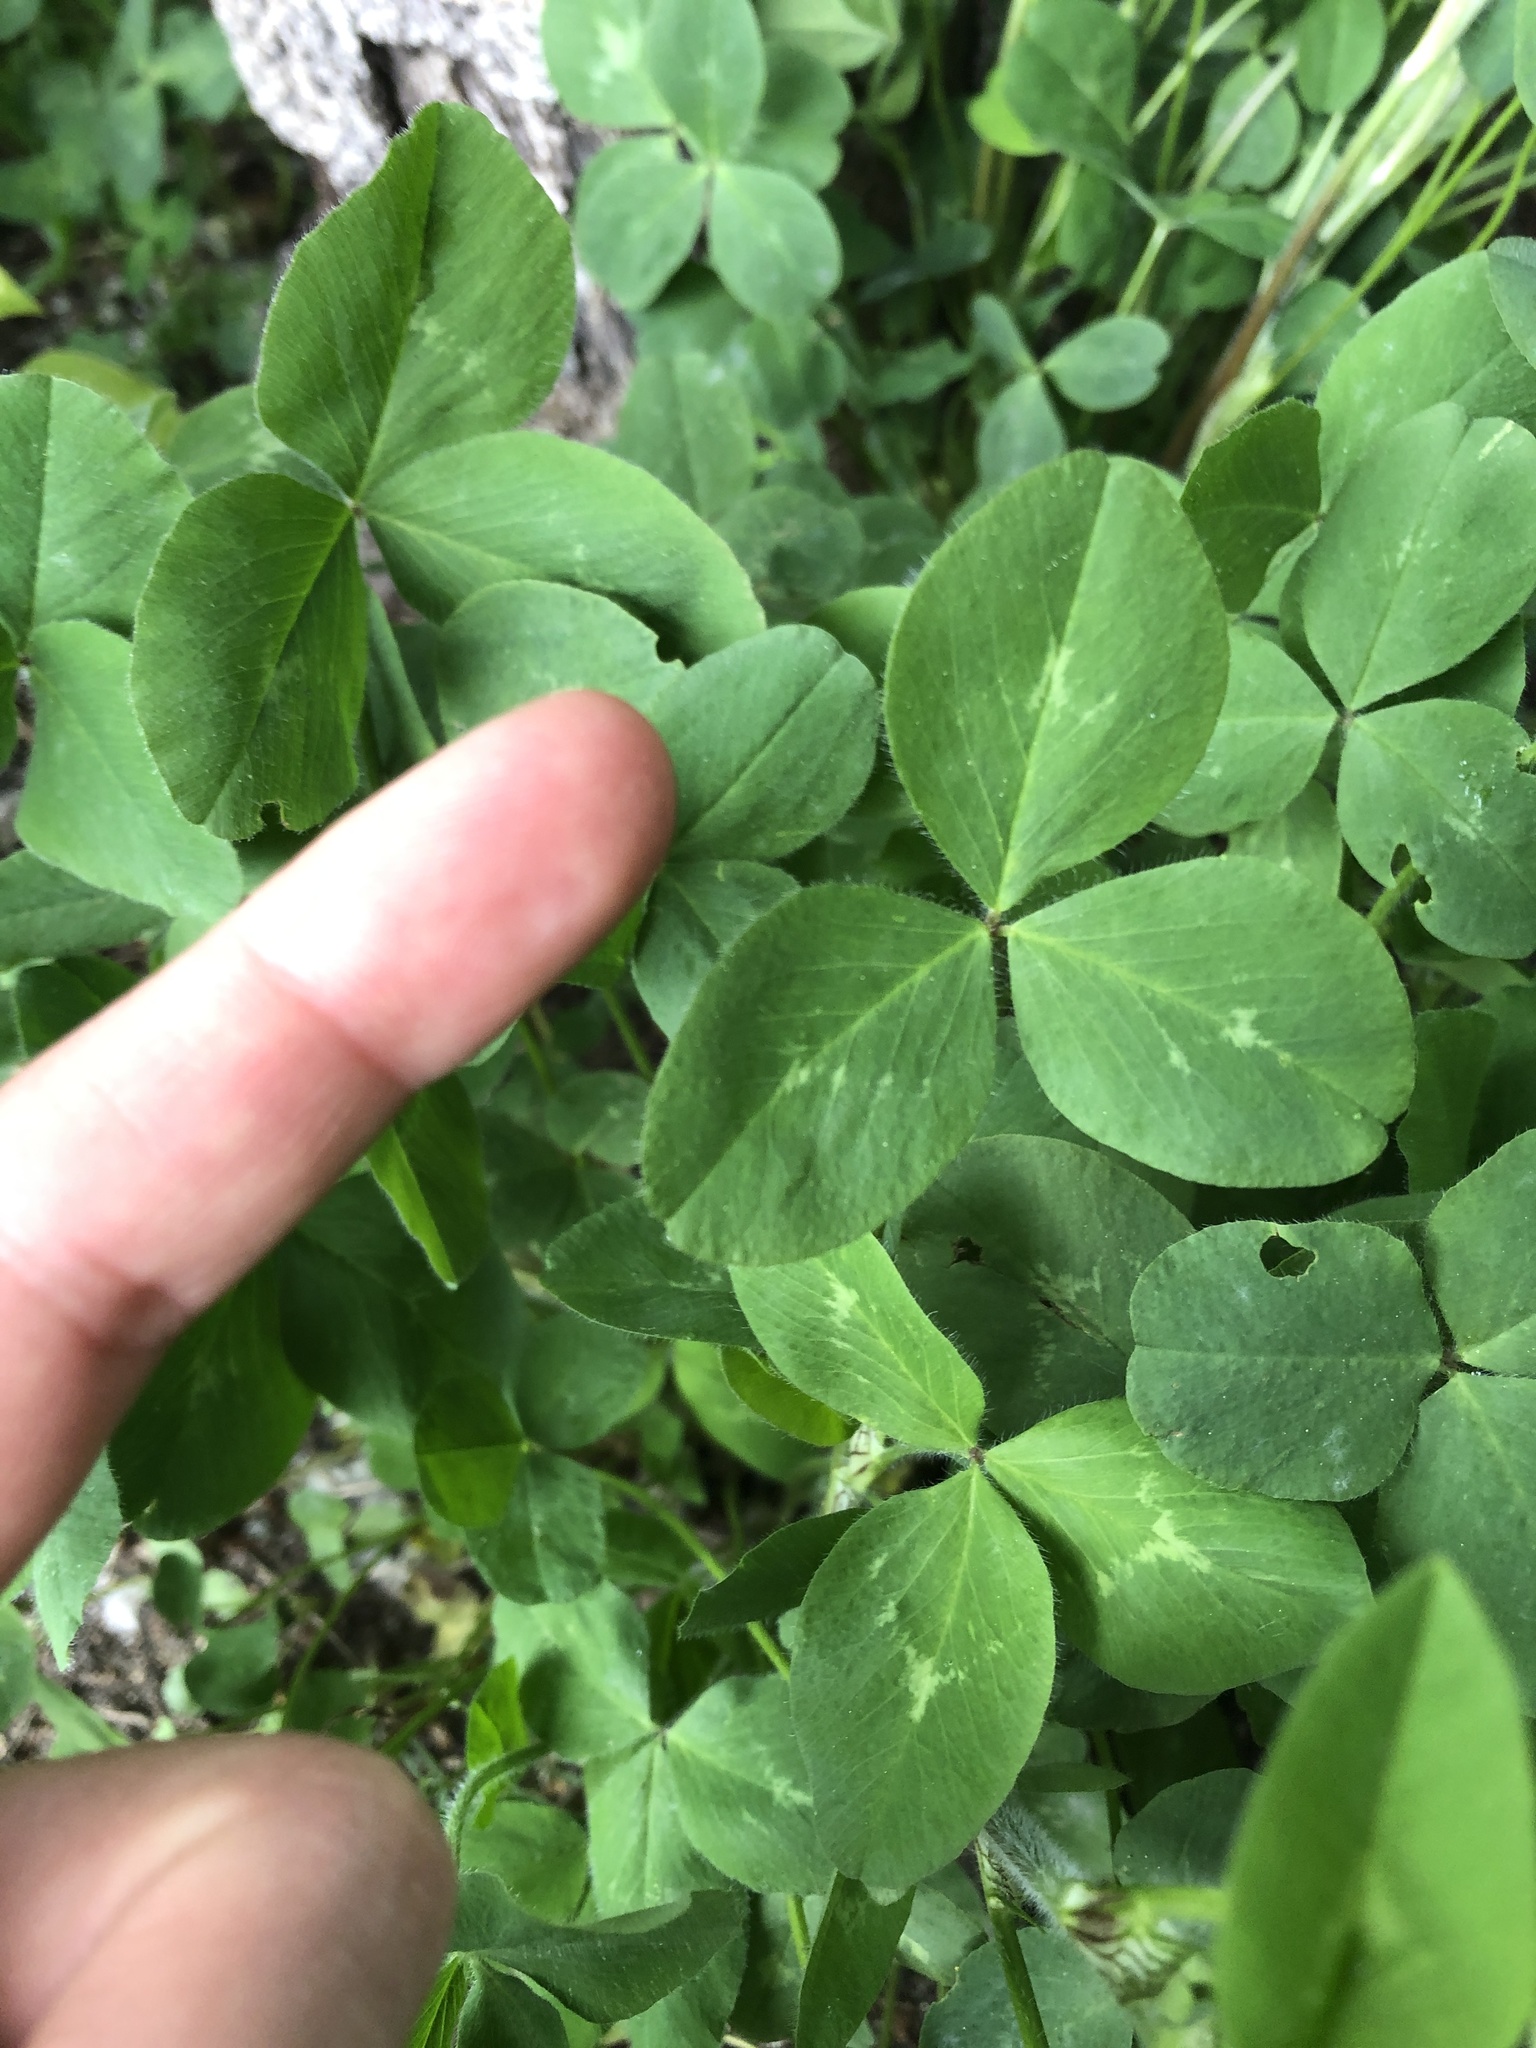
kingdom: Plantae
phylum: Tracheophyta
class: Magnoliopsida
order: Fabales
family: Fabaceae
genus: Trifolium
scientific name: Trifolium pratense
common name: Red clover
